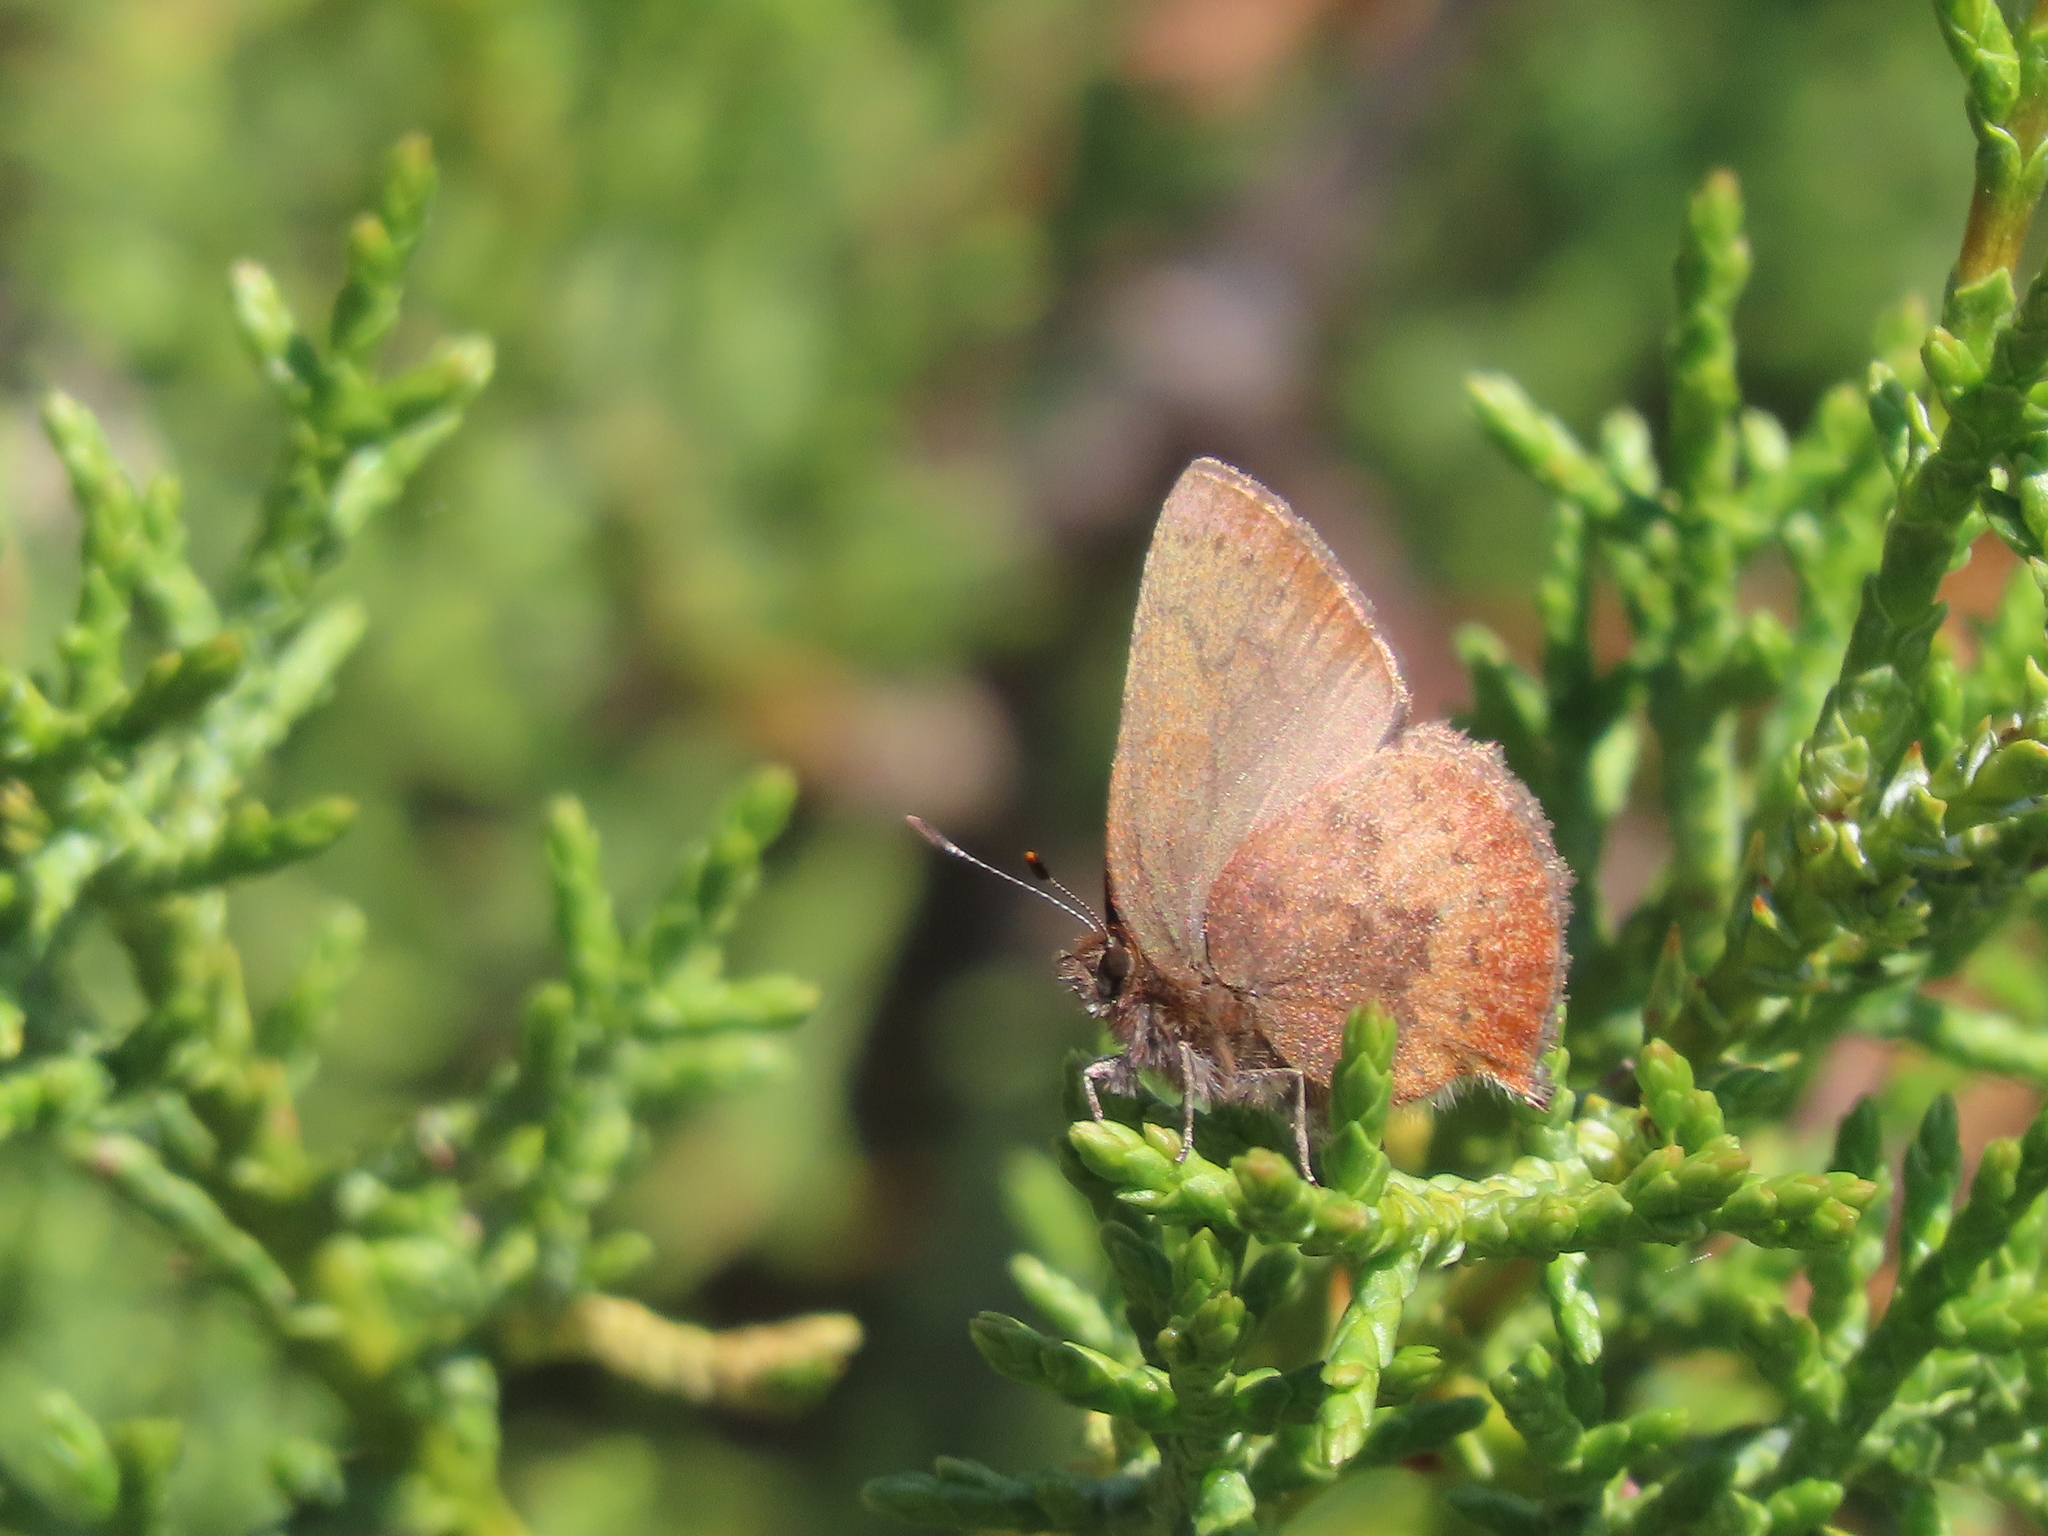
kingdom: Animalia
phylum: Arthropoda
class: Insecta
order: Lepidoptera
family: Lycaenidae
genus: Incisalia
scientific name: Incisalia irioides
